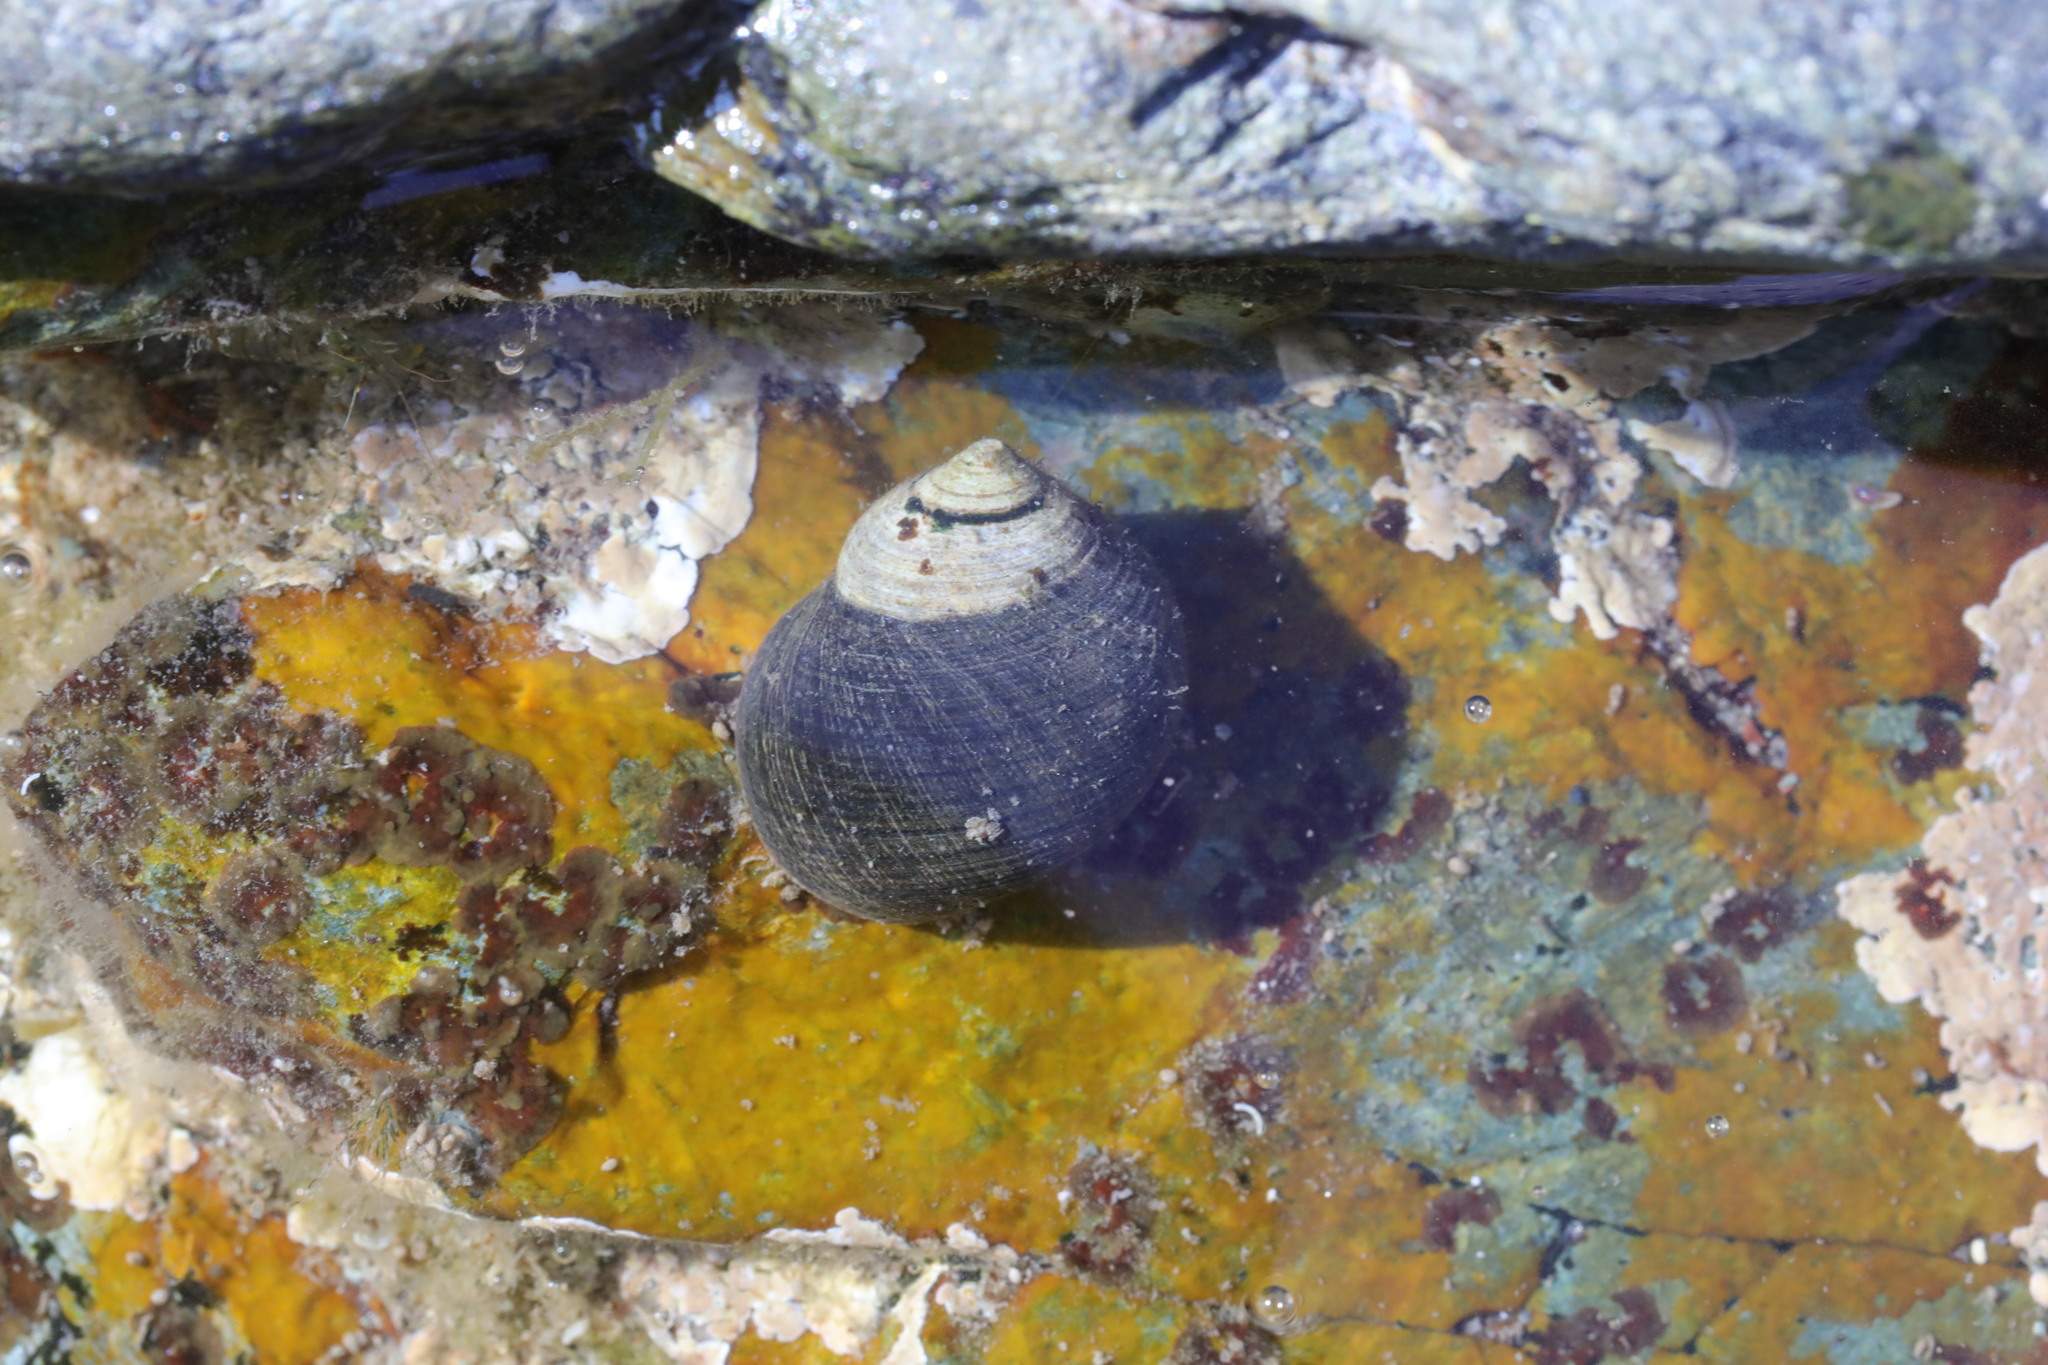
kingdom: Animalia
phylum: Mollusca
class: Gastropoda
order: Littorinimorpha
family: Littorinidae
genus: Littorina
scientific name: Littorina littorea
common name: Common periwinkle
